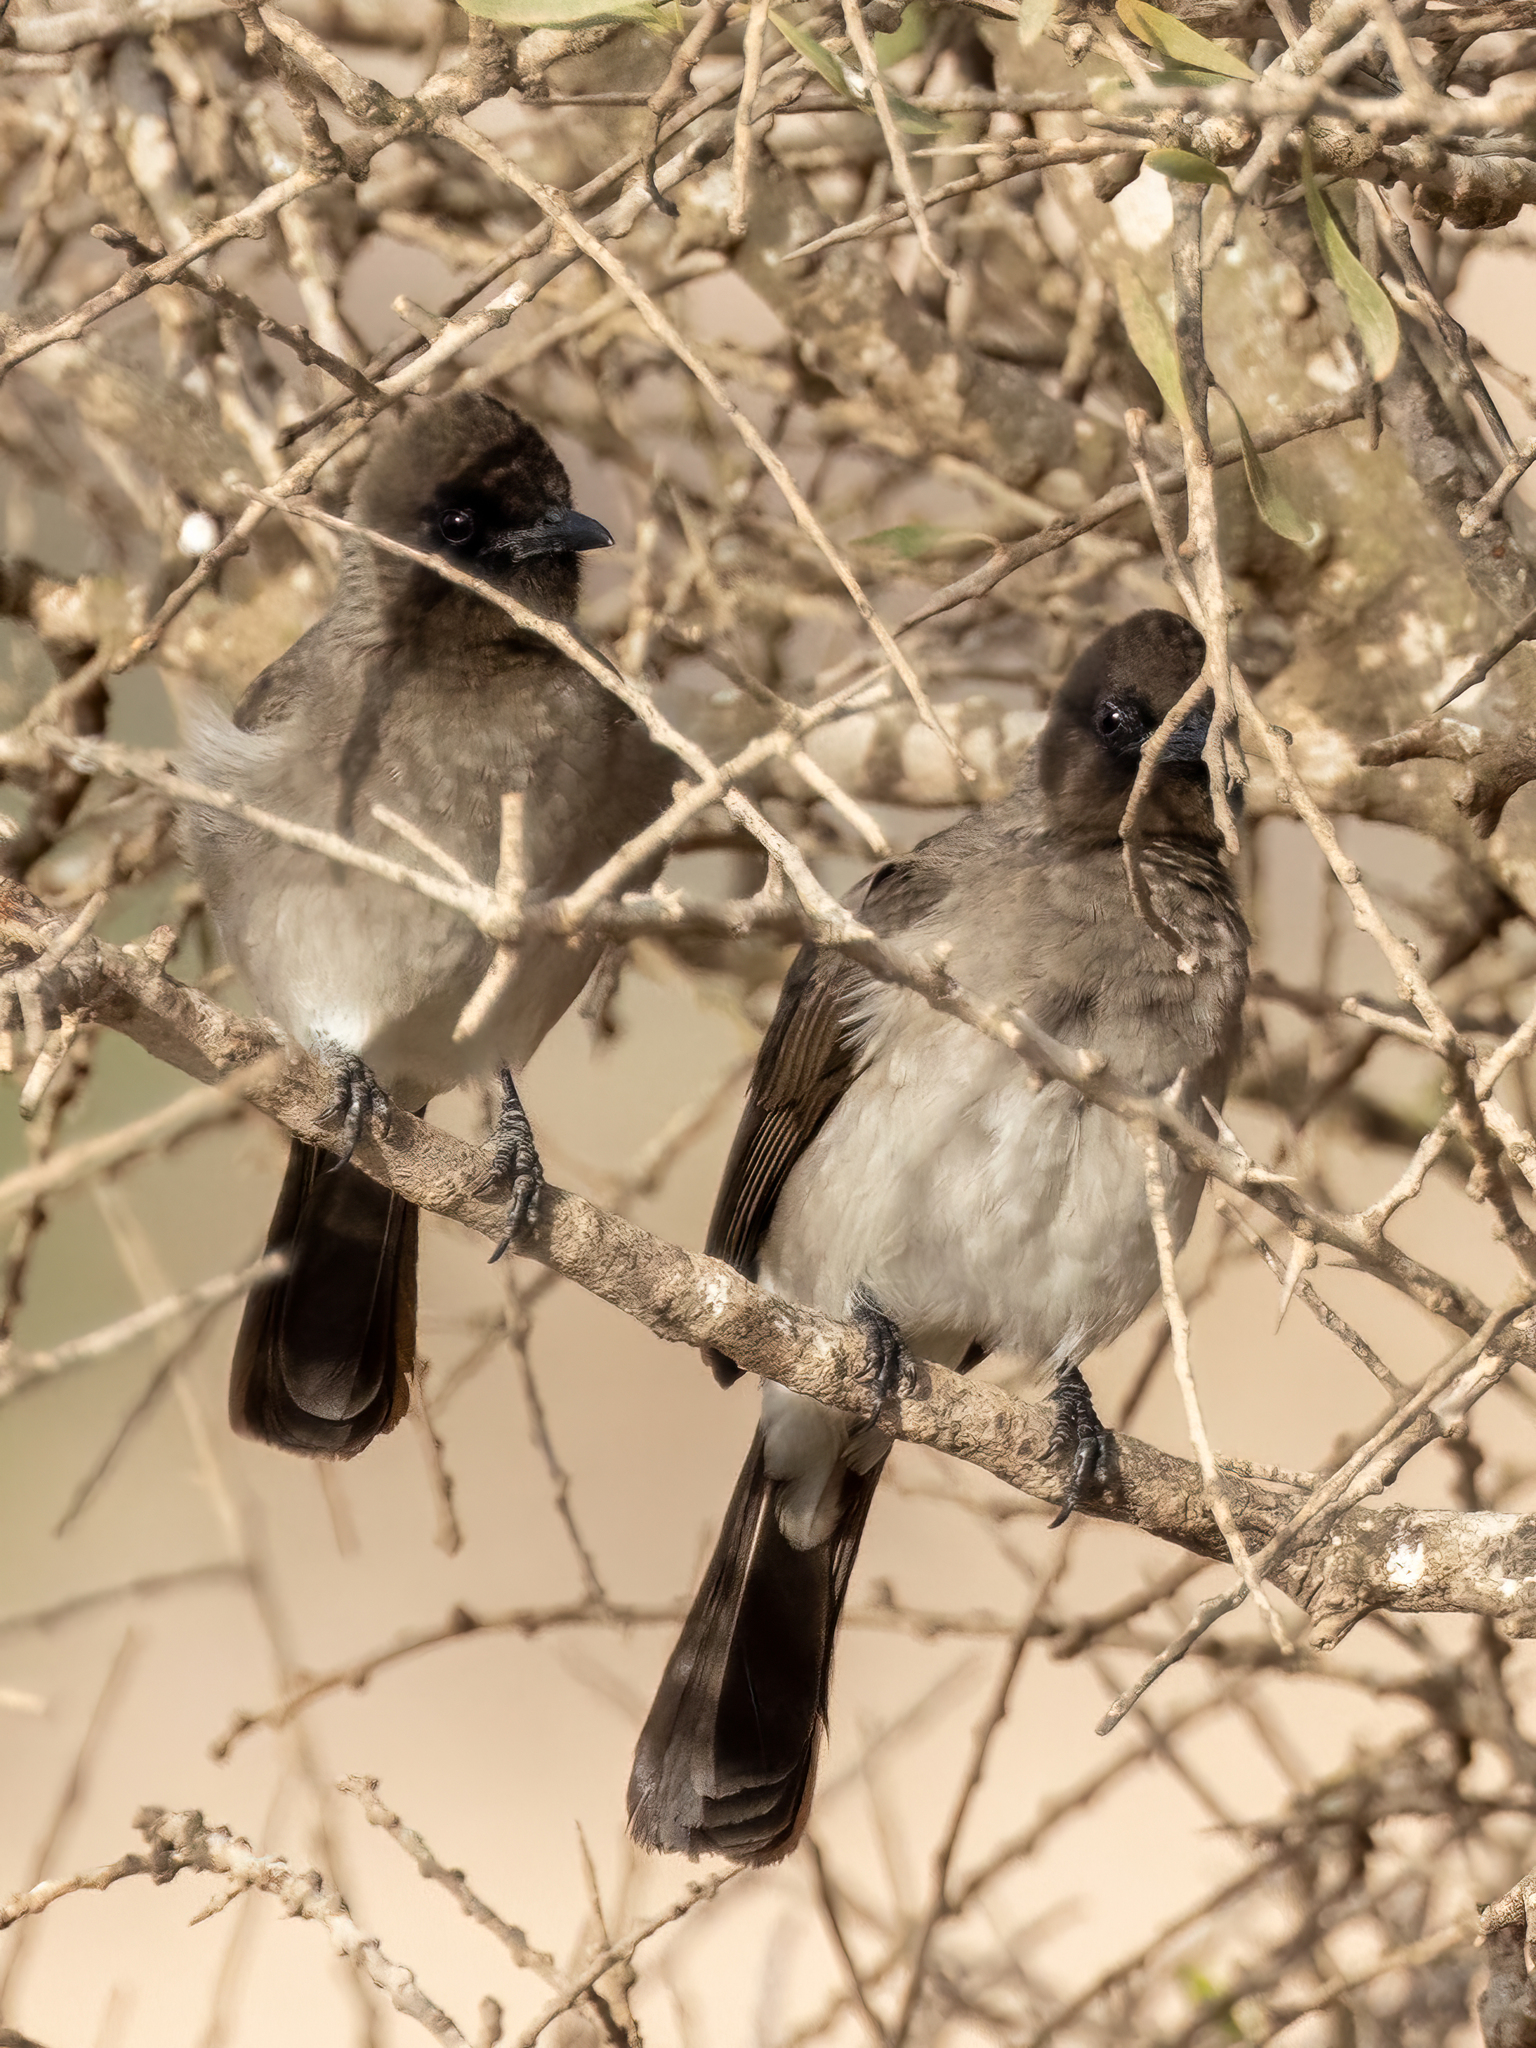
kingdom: Animalia
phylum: Chordata
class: Aves
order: Passeriformes
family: Pycnonotidae
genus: Pycnonotus
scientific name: Pycnonotus barbatus
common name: Common bulbul
